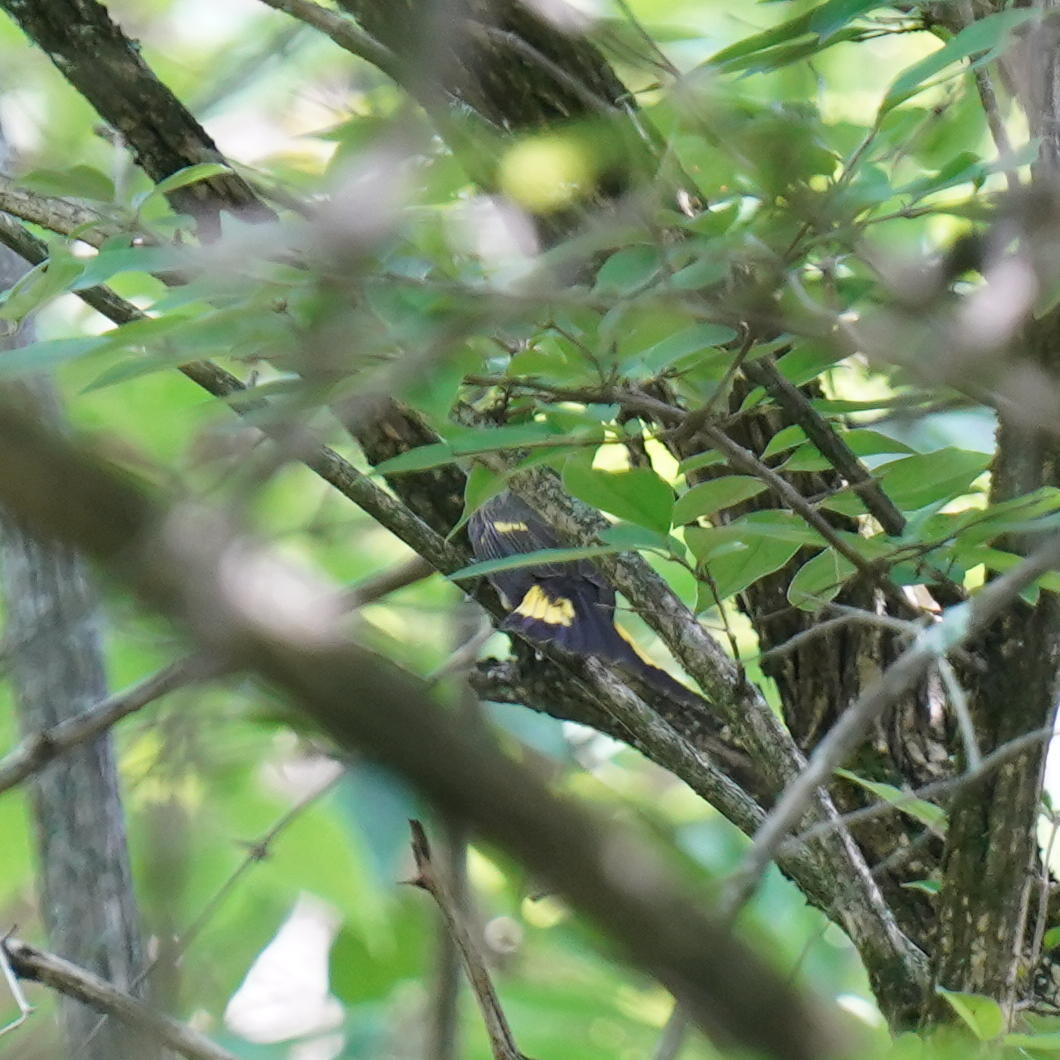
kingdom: Animalia
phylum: Chordata
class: Aves
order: Passeriformes
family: Parulidae
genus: Setophaga
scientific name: Setophaga ruticilla
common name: American redstart
